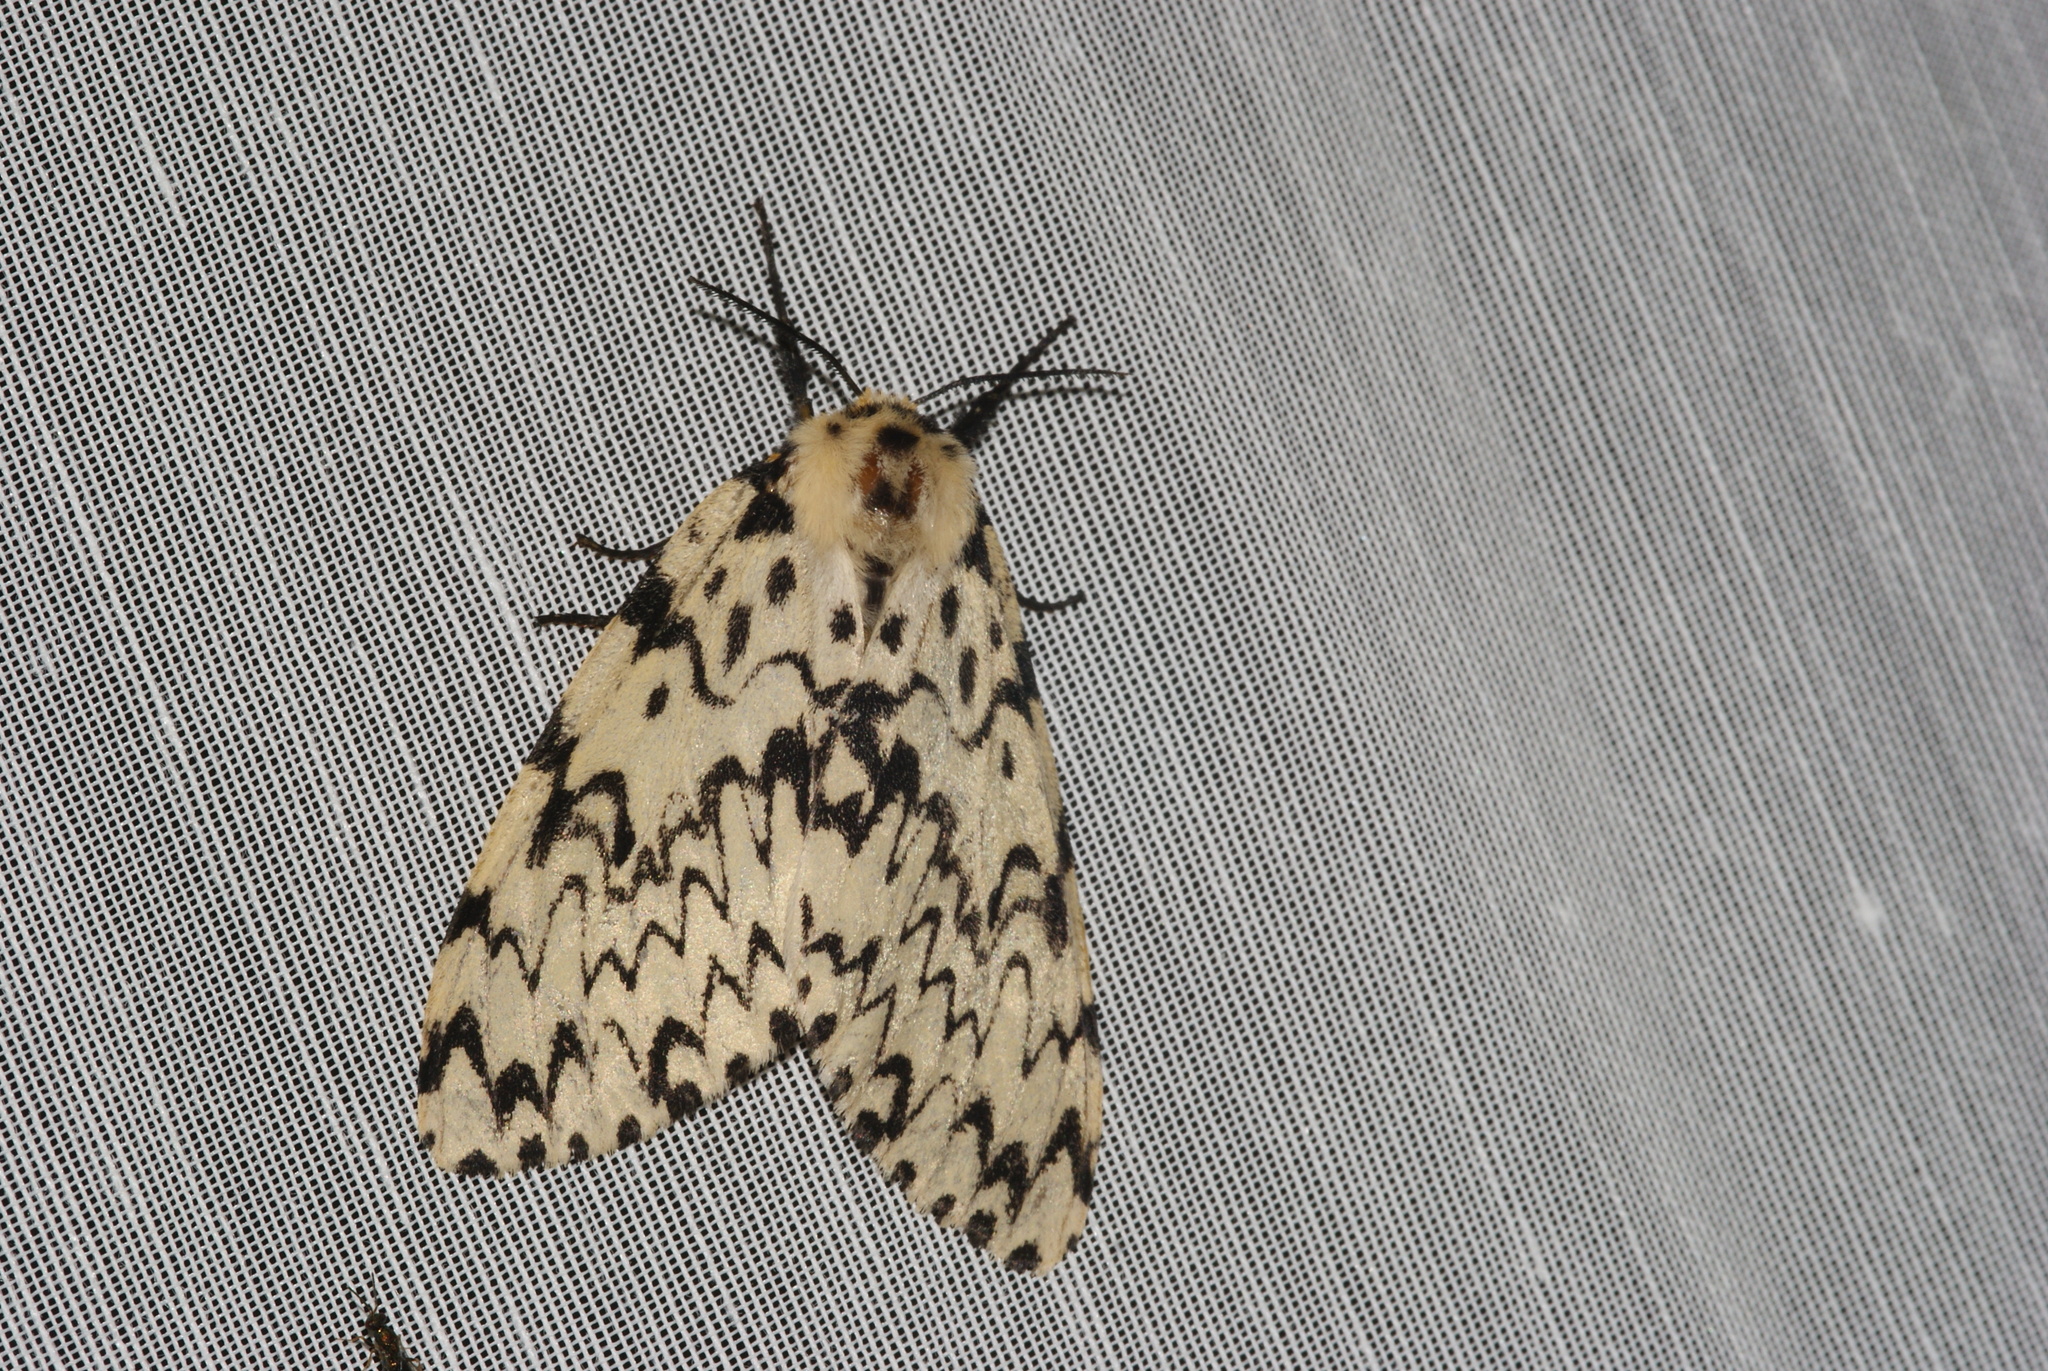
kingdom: Animalia
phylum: Arthropoda
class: Insecta
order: Lepidoptera
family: Erebidae
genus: Lymantria
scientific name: Lymantria monacha
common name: Black arches
